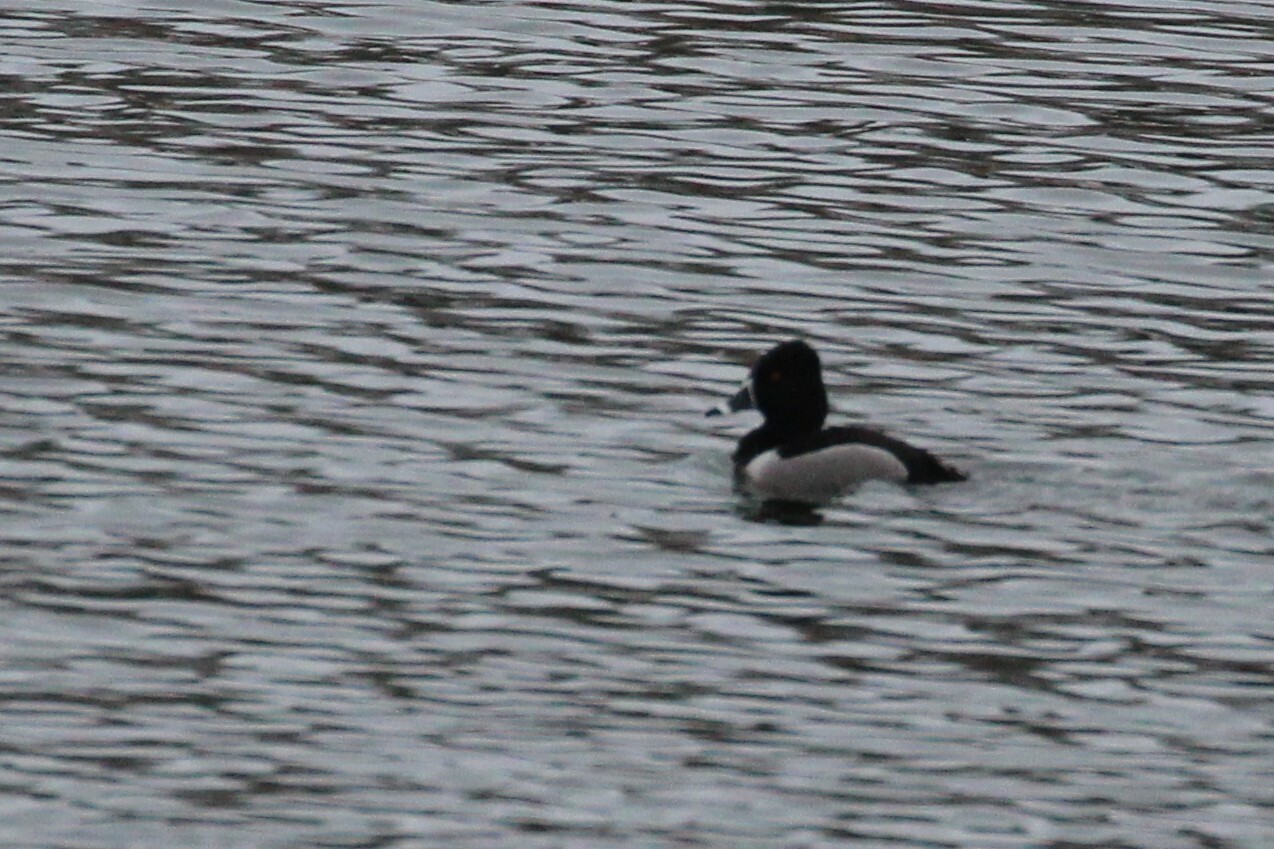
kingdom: Animalia
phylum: Chordata
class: Aves
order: Anseriformes
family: Anatidae
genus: Aythya
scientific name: Aythya collaris
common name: Ring-necked duck
